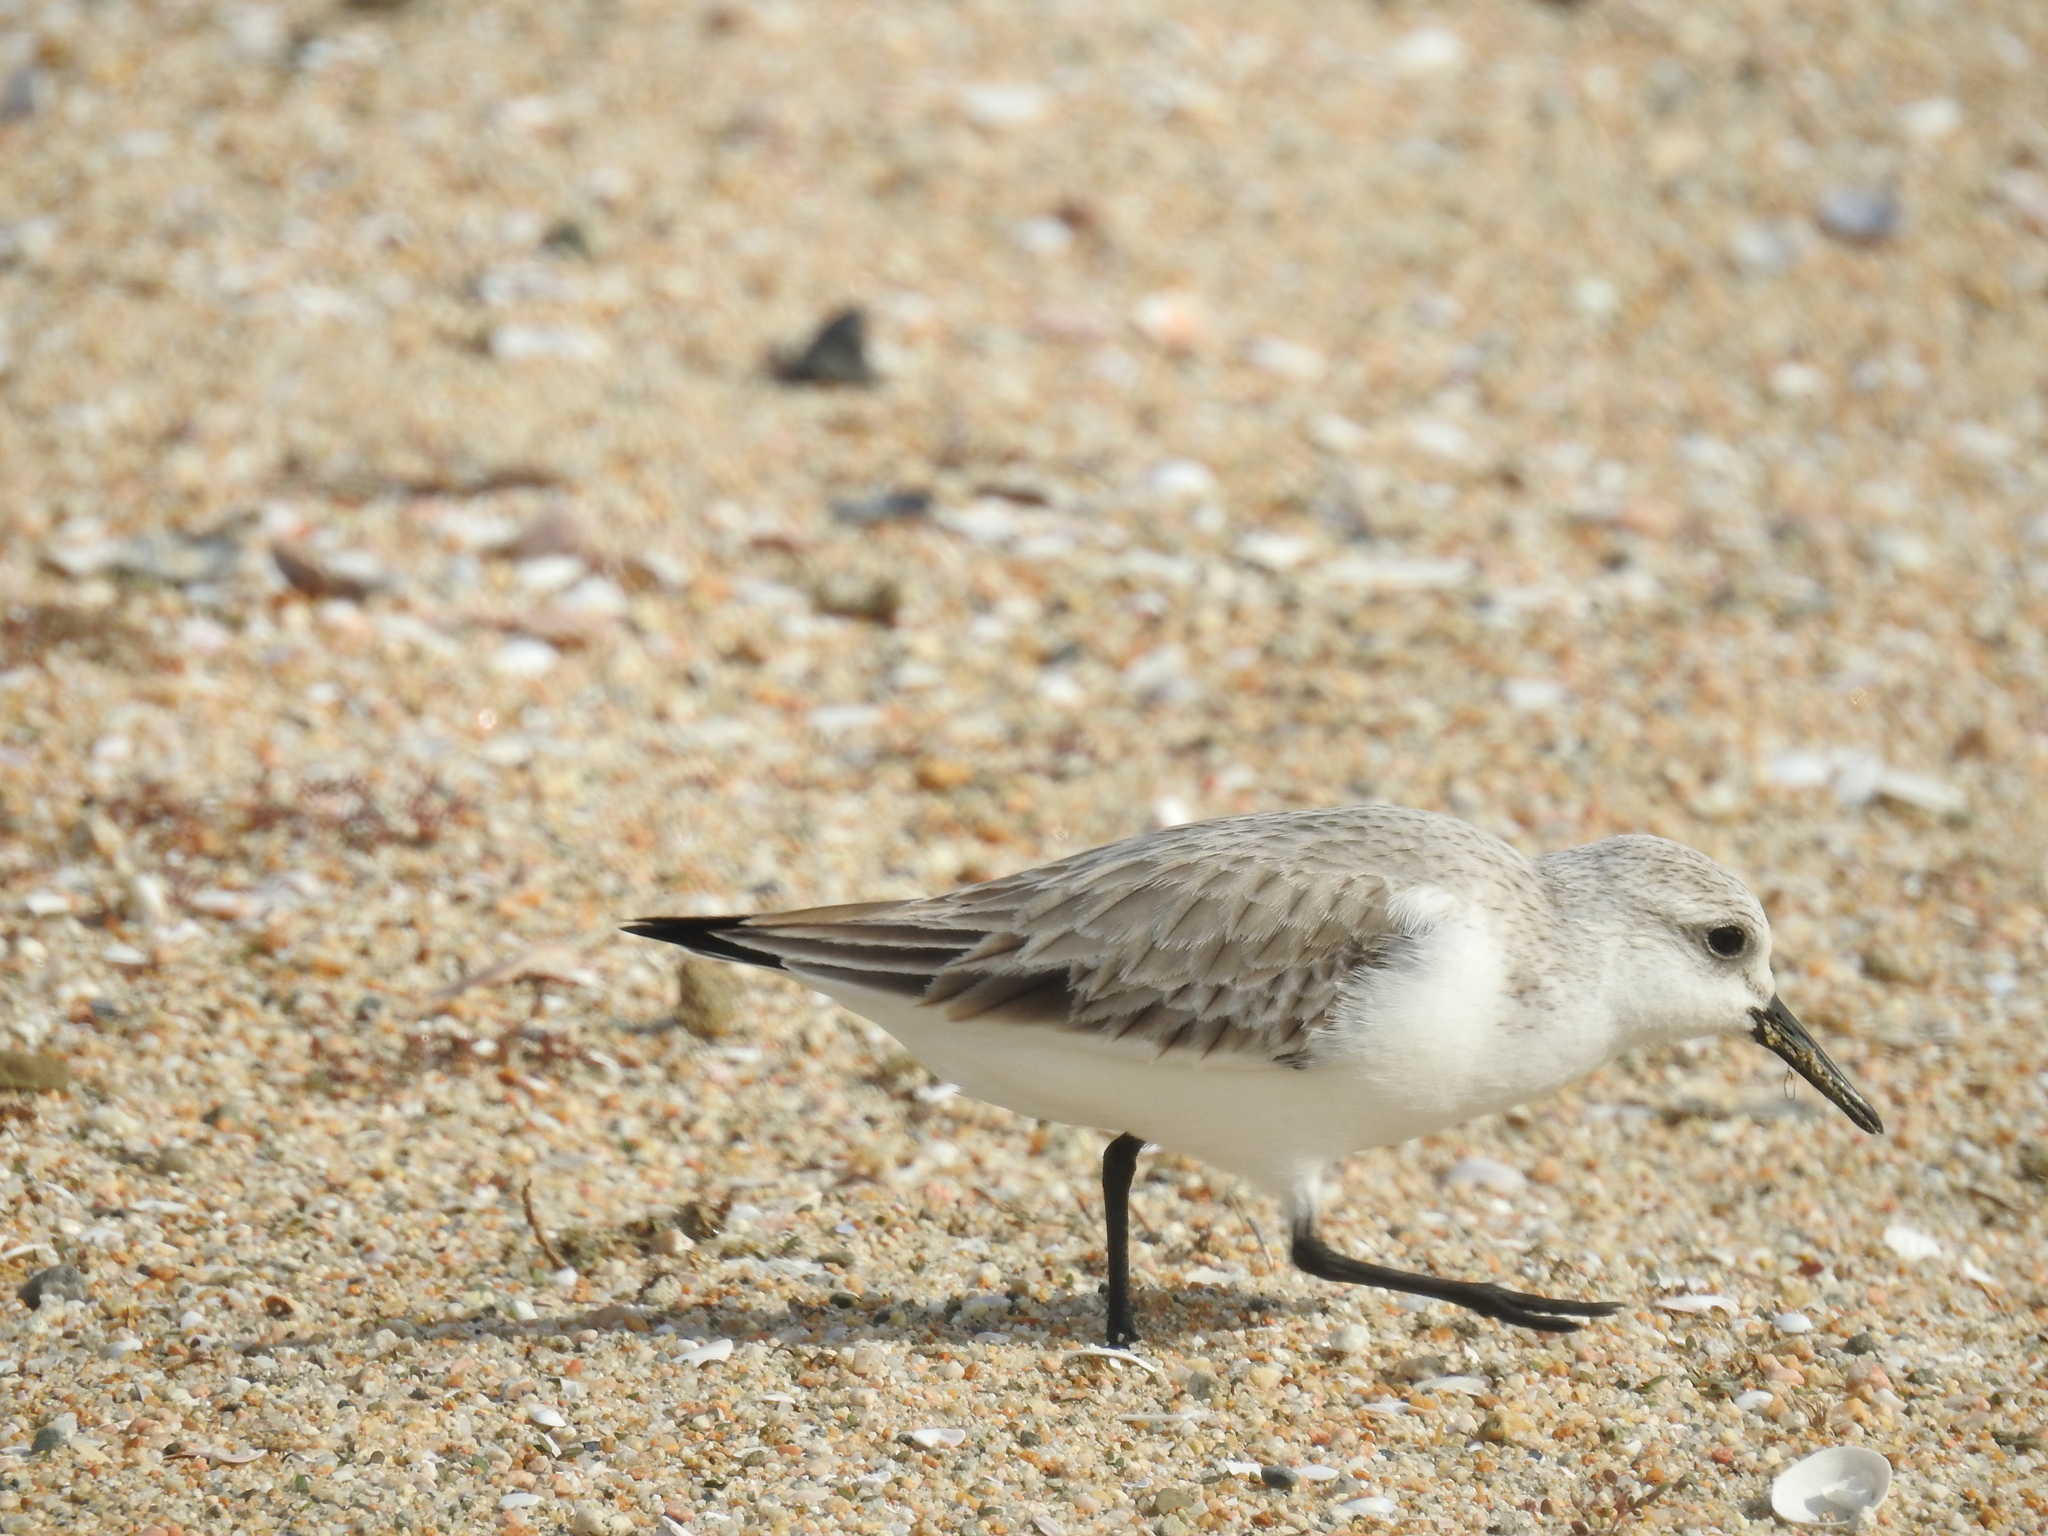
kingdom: Animalia
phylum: Chordata
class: Aves
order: Charadriiformes
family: Scolopacidae
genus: Calidris
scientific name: Calidris alba
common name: Sanderling
